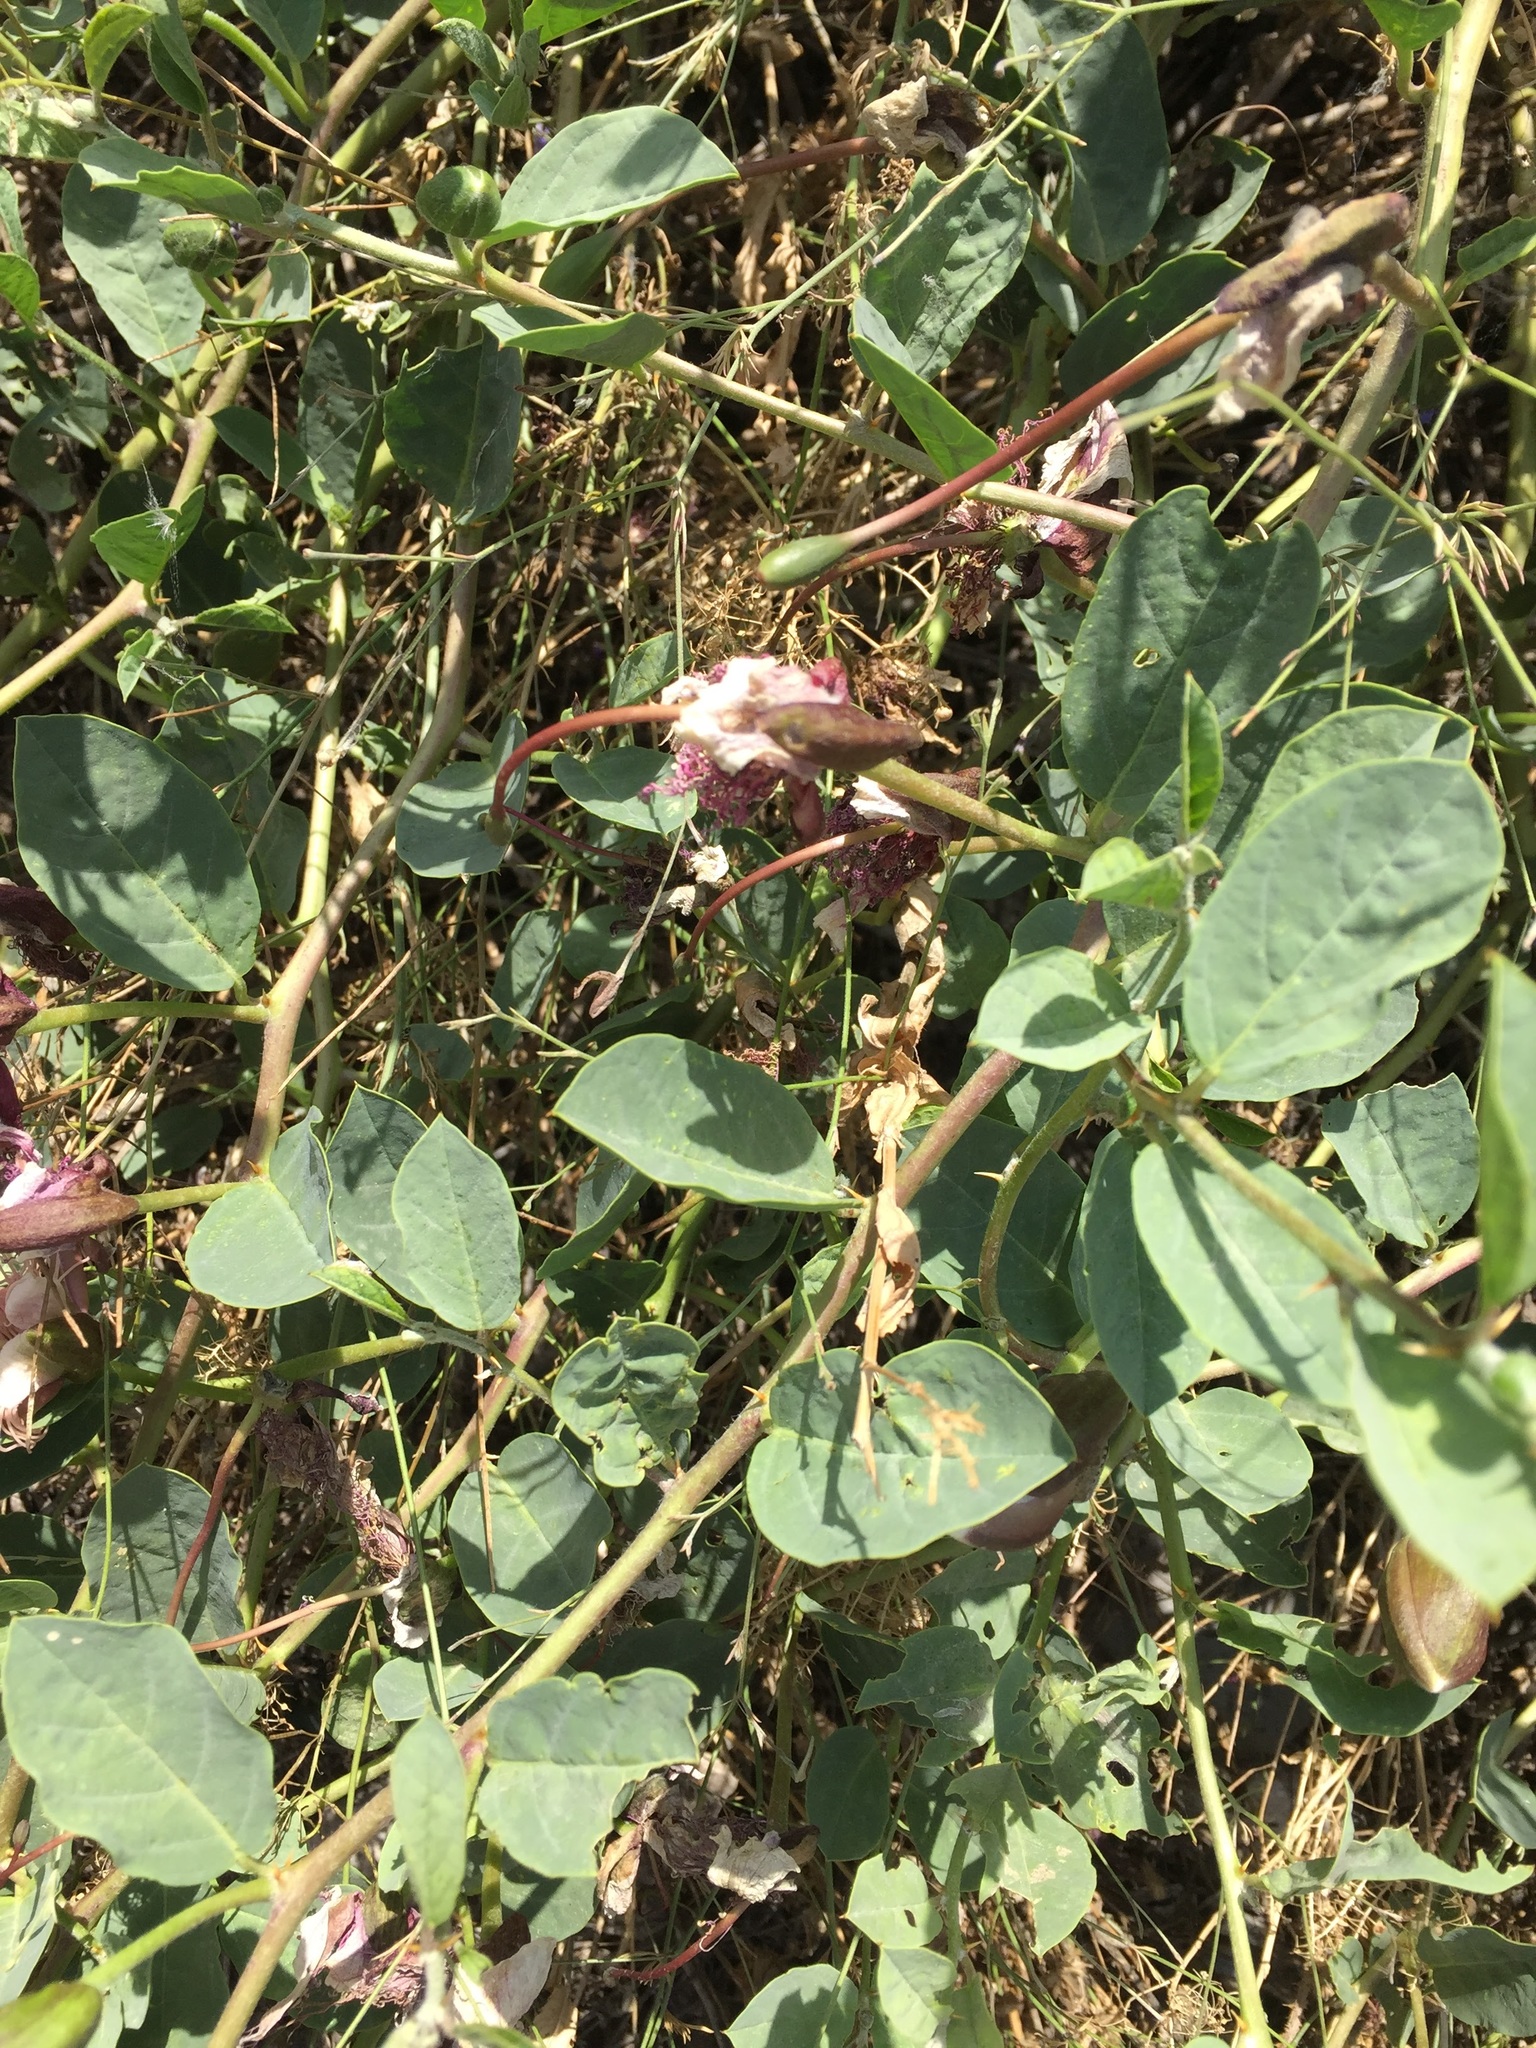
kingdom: Plantae
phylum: Tracheophyta
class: Magnoliopsida
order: Brassicales
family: Capparaceae
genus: Capparis
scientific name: Capparis spinosa
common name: Caper
